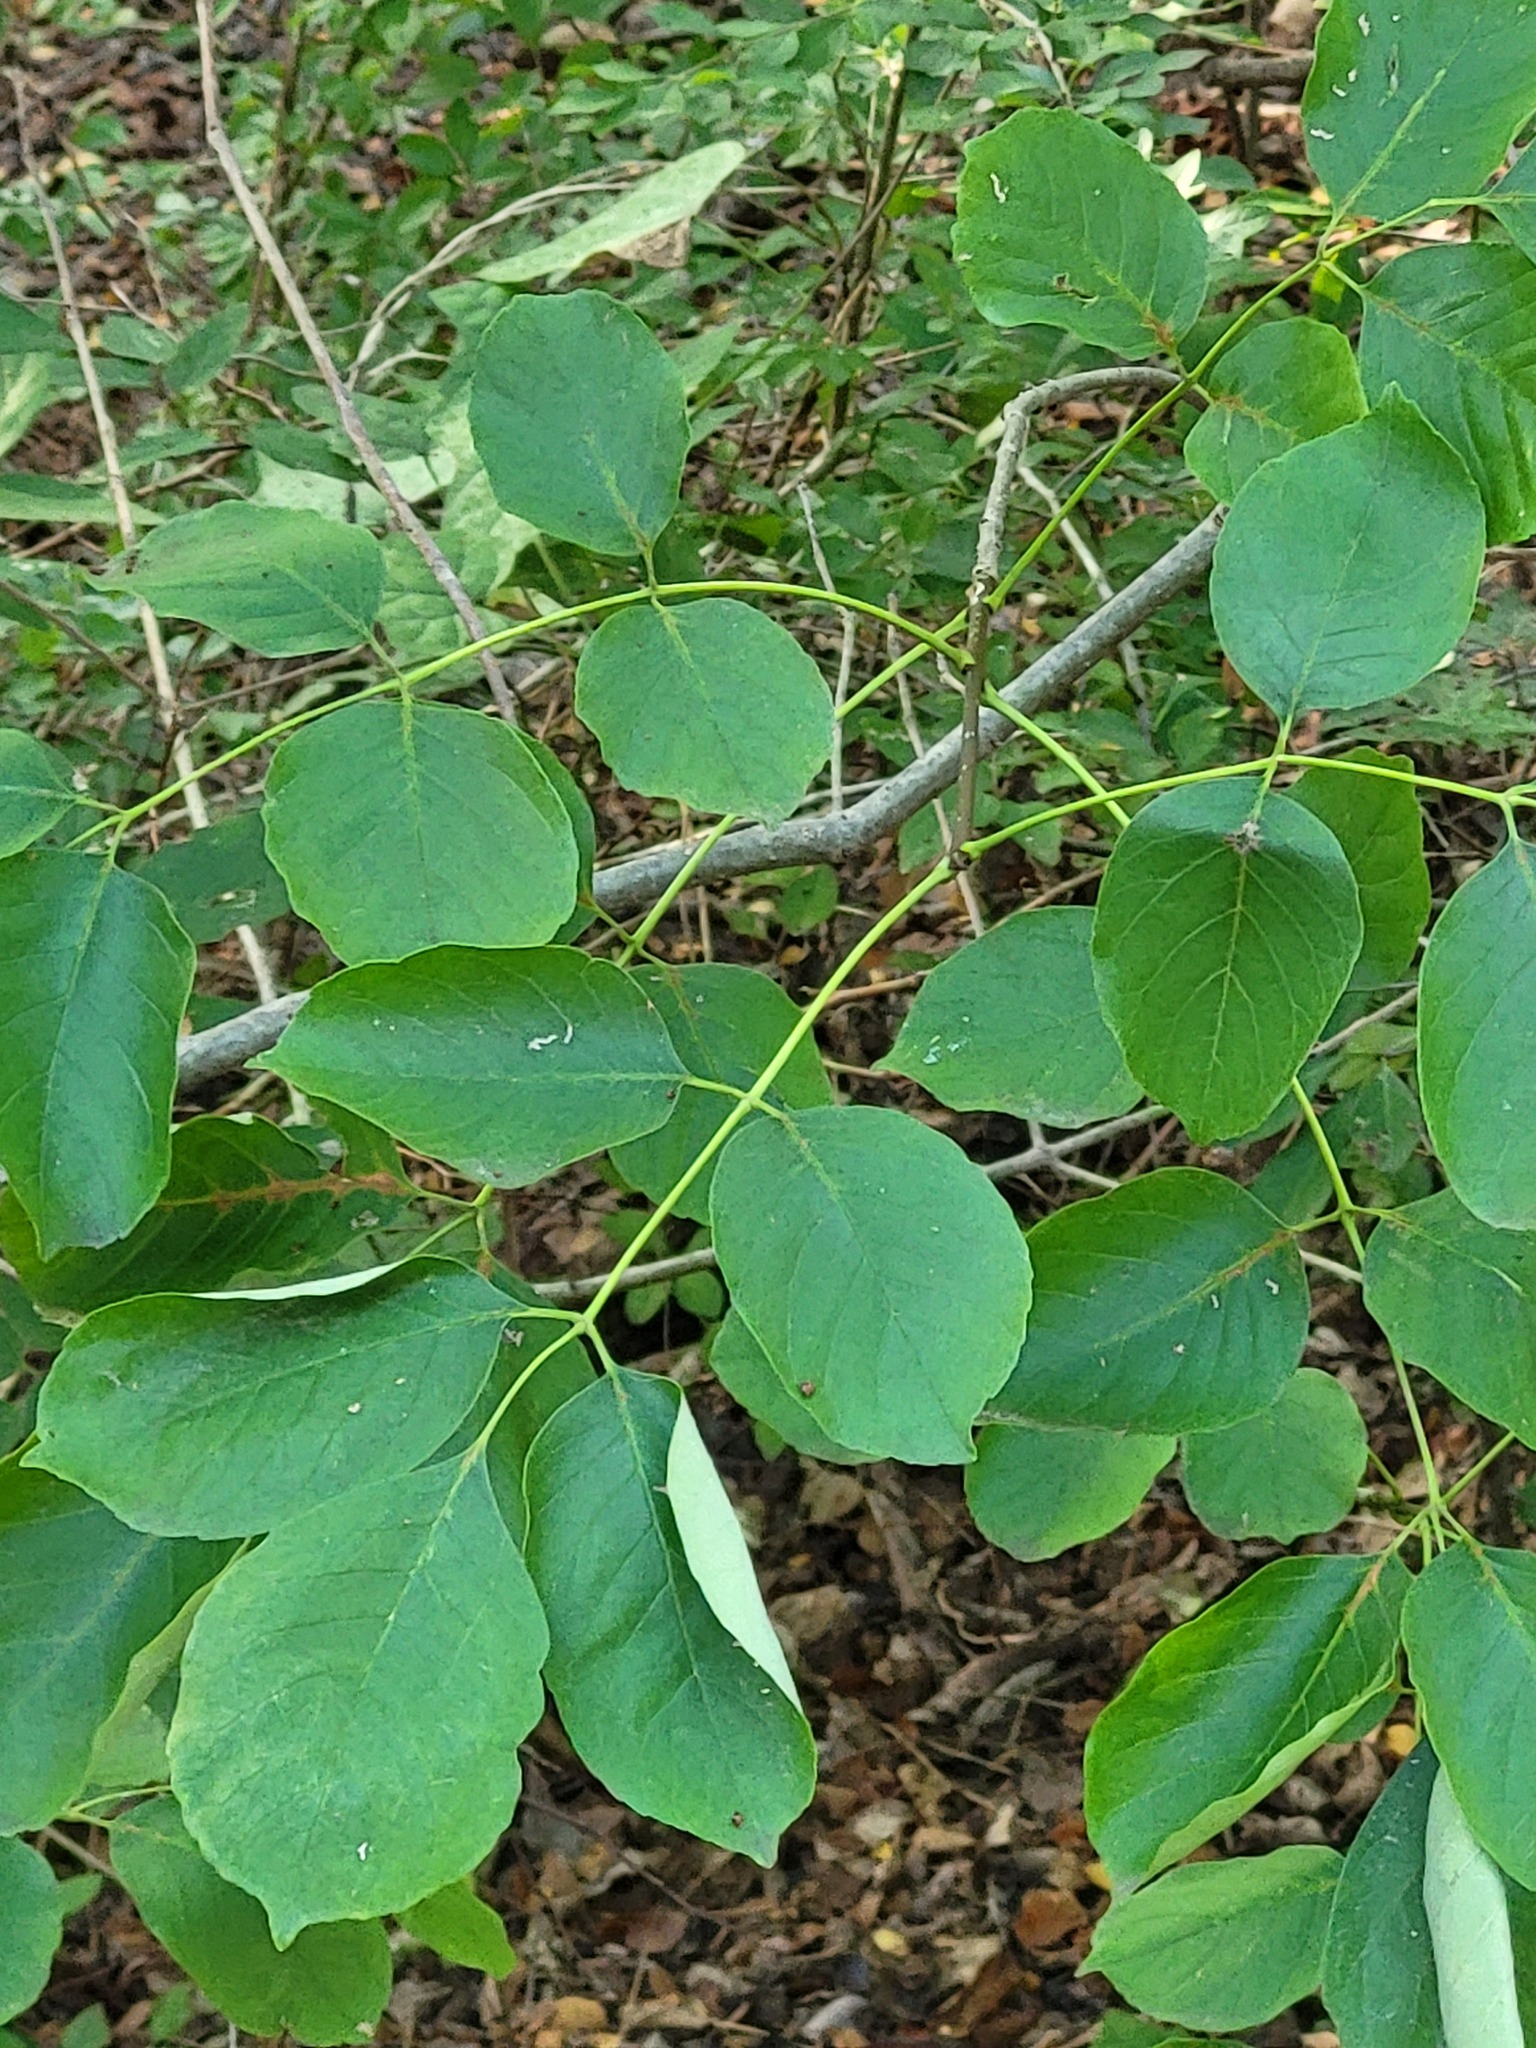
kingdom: Plantae
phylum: Tracheophyta
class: Magnoliopsida
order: Lamiales
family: Oleaceae
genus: Fraxinus
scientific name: Fraxinus albicans
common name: Texas ash
